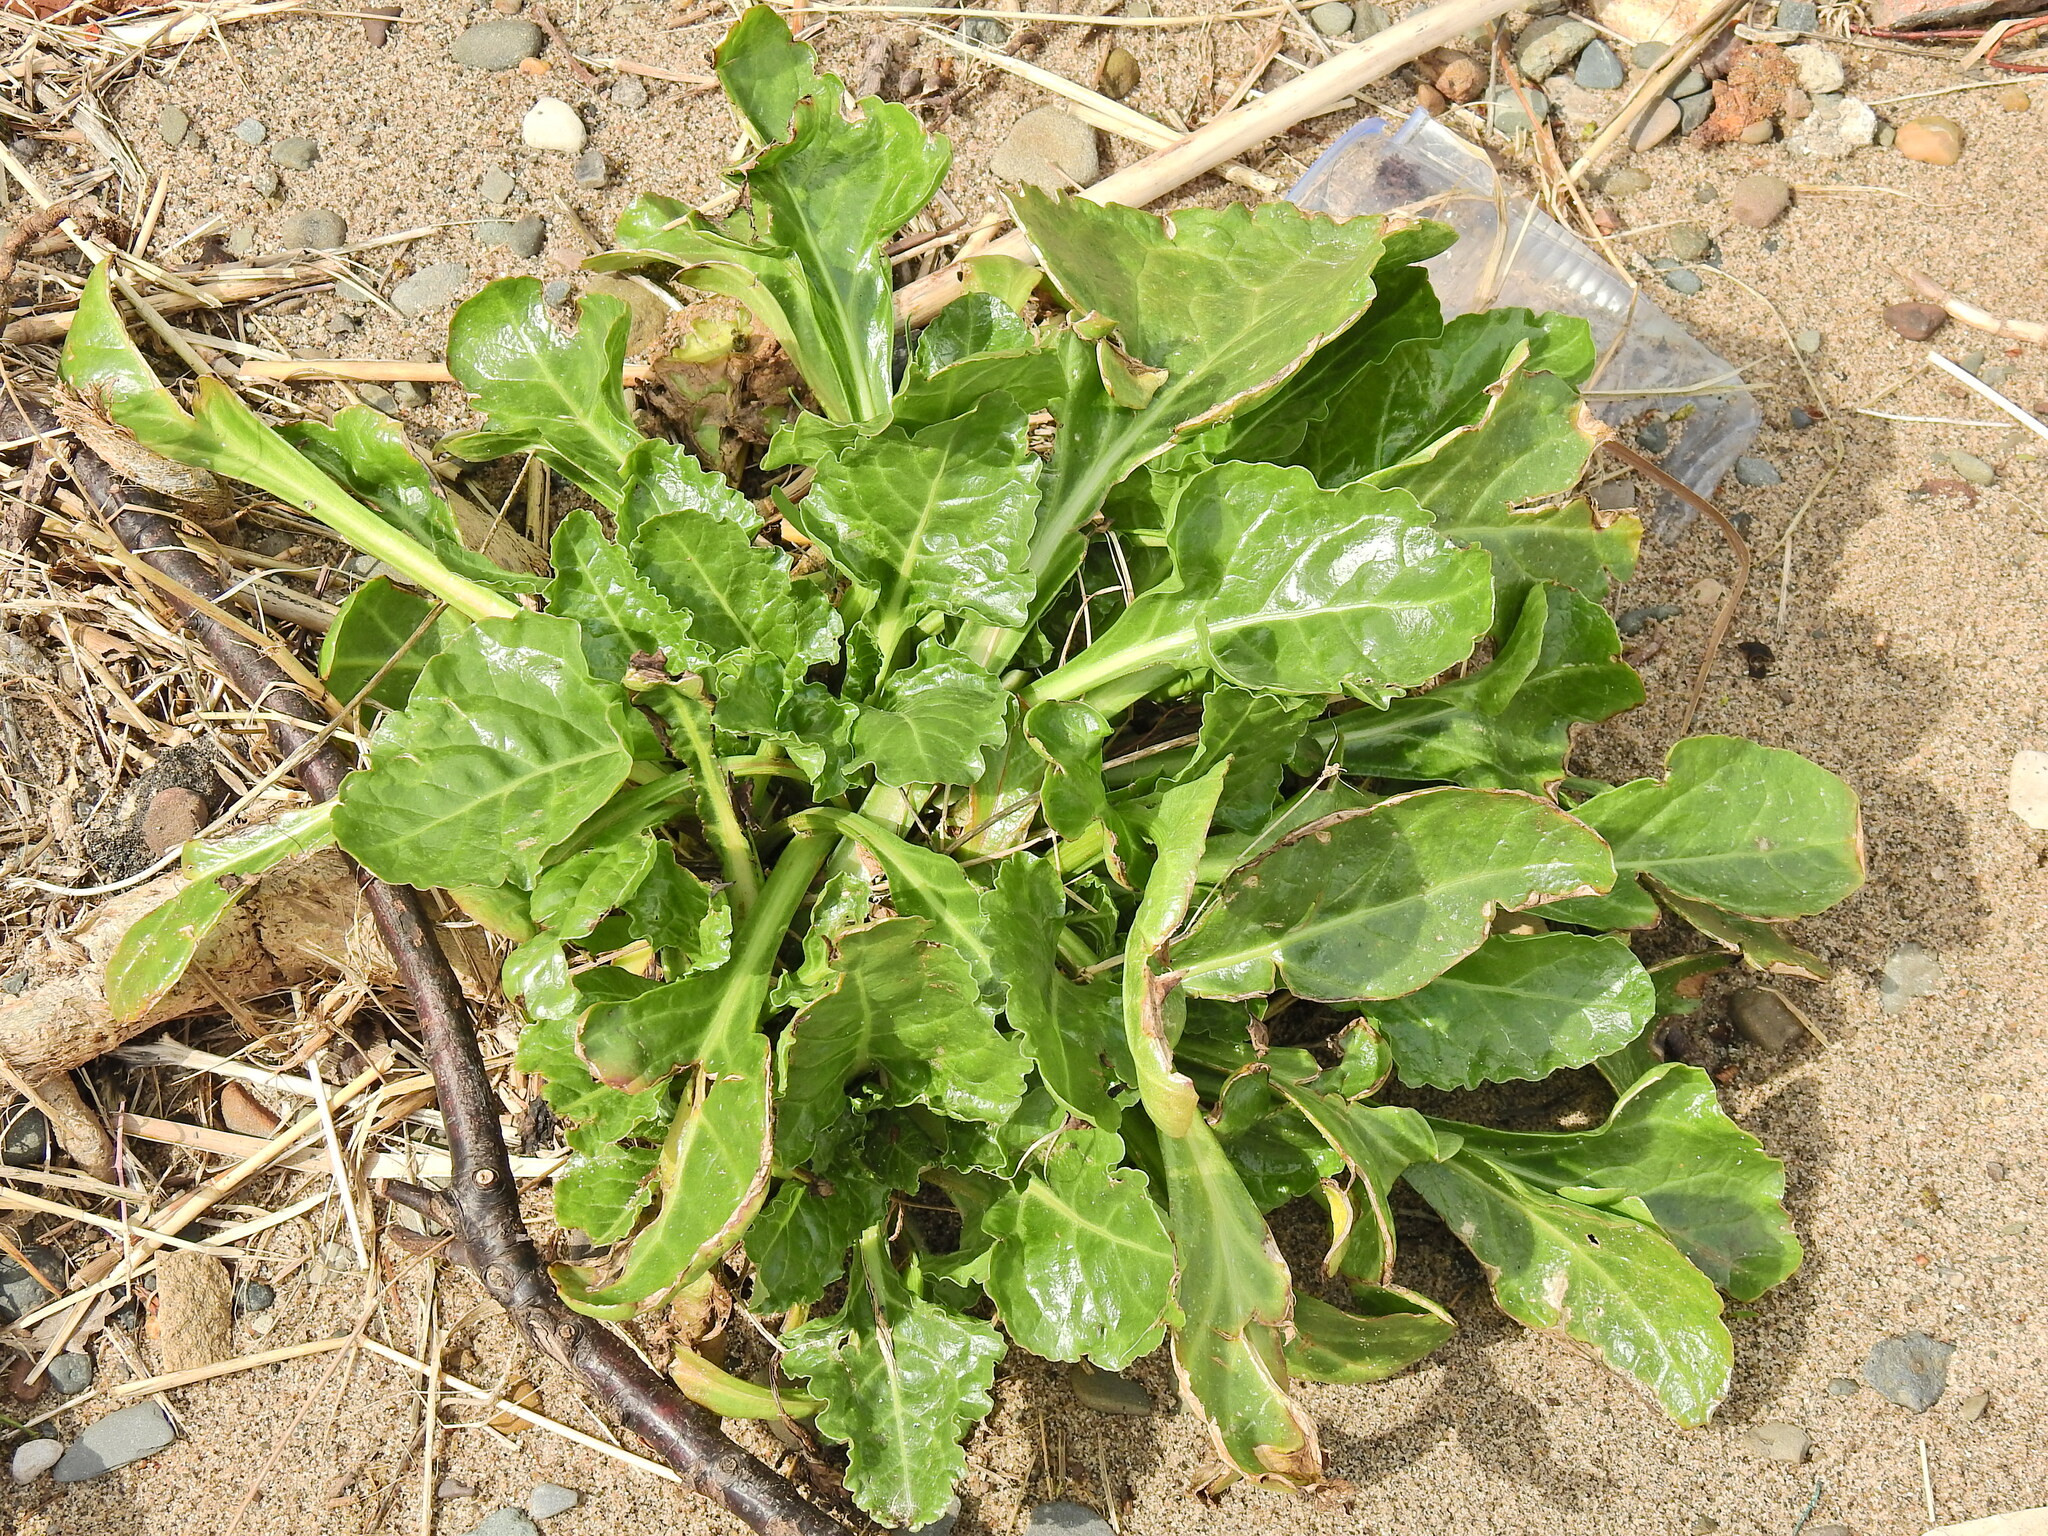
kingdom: Plantae
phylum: Tracheophyta
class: Magnoliopsida
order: Caryophyllales
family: Amaranthaceae
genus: Beta
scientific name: Beta vulgaris
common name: Beet
